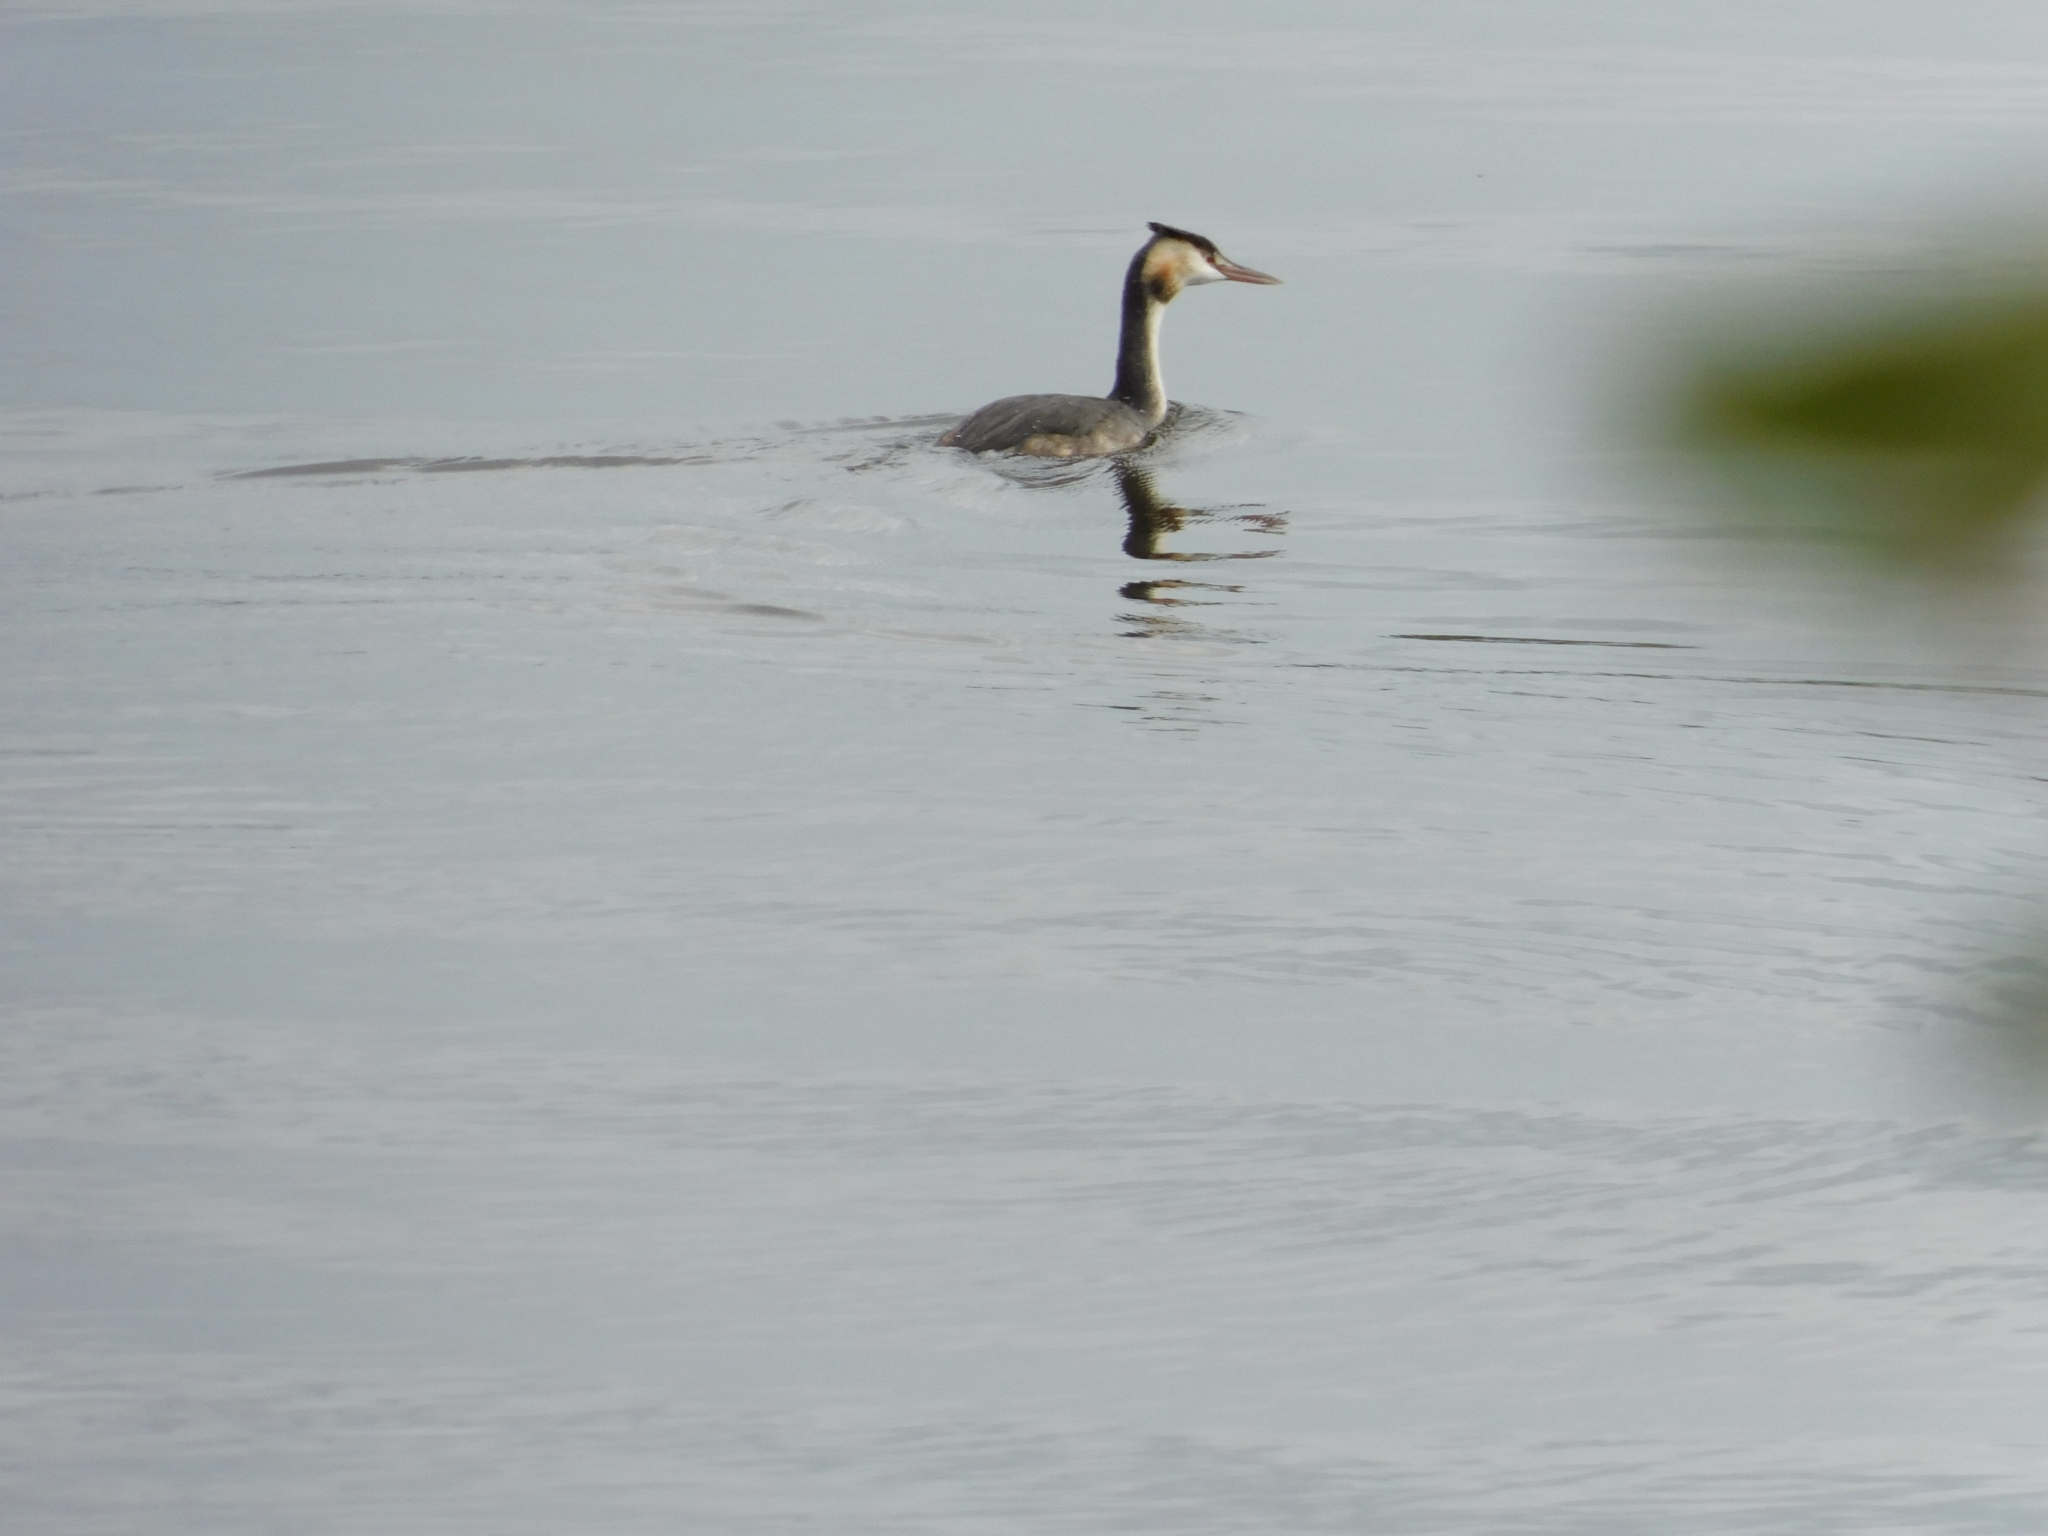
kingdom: Animalia
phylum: Chordata
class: Aves
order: Podicipediformes
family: Podicipedidae
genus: Podiceps
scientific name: Podiceps cristatus
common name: Great crested grebe
